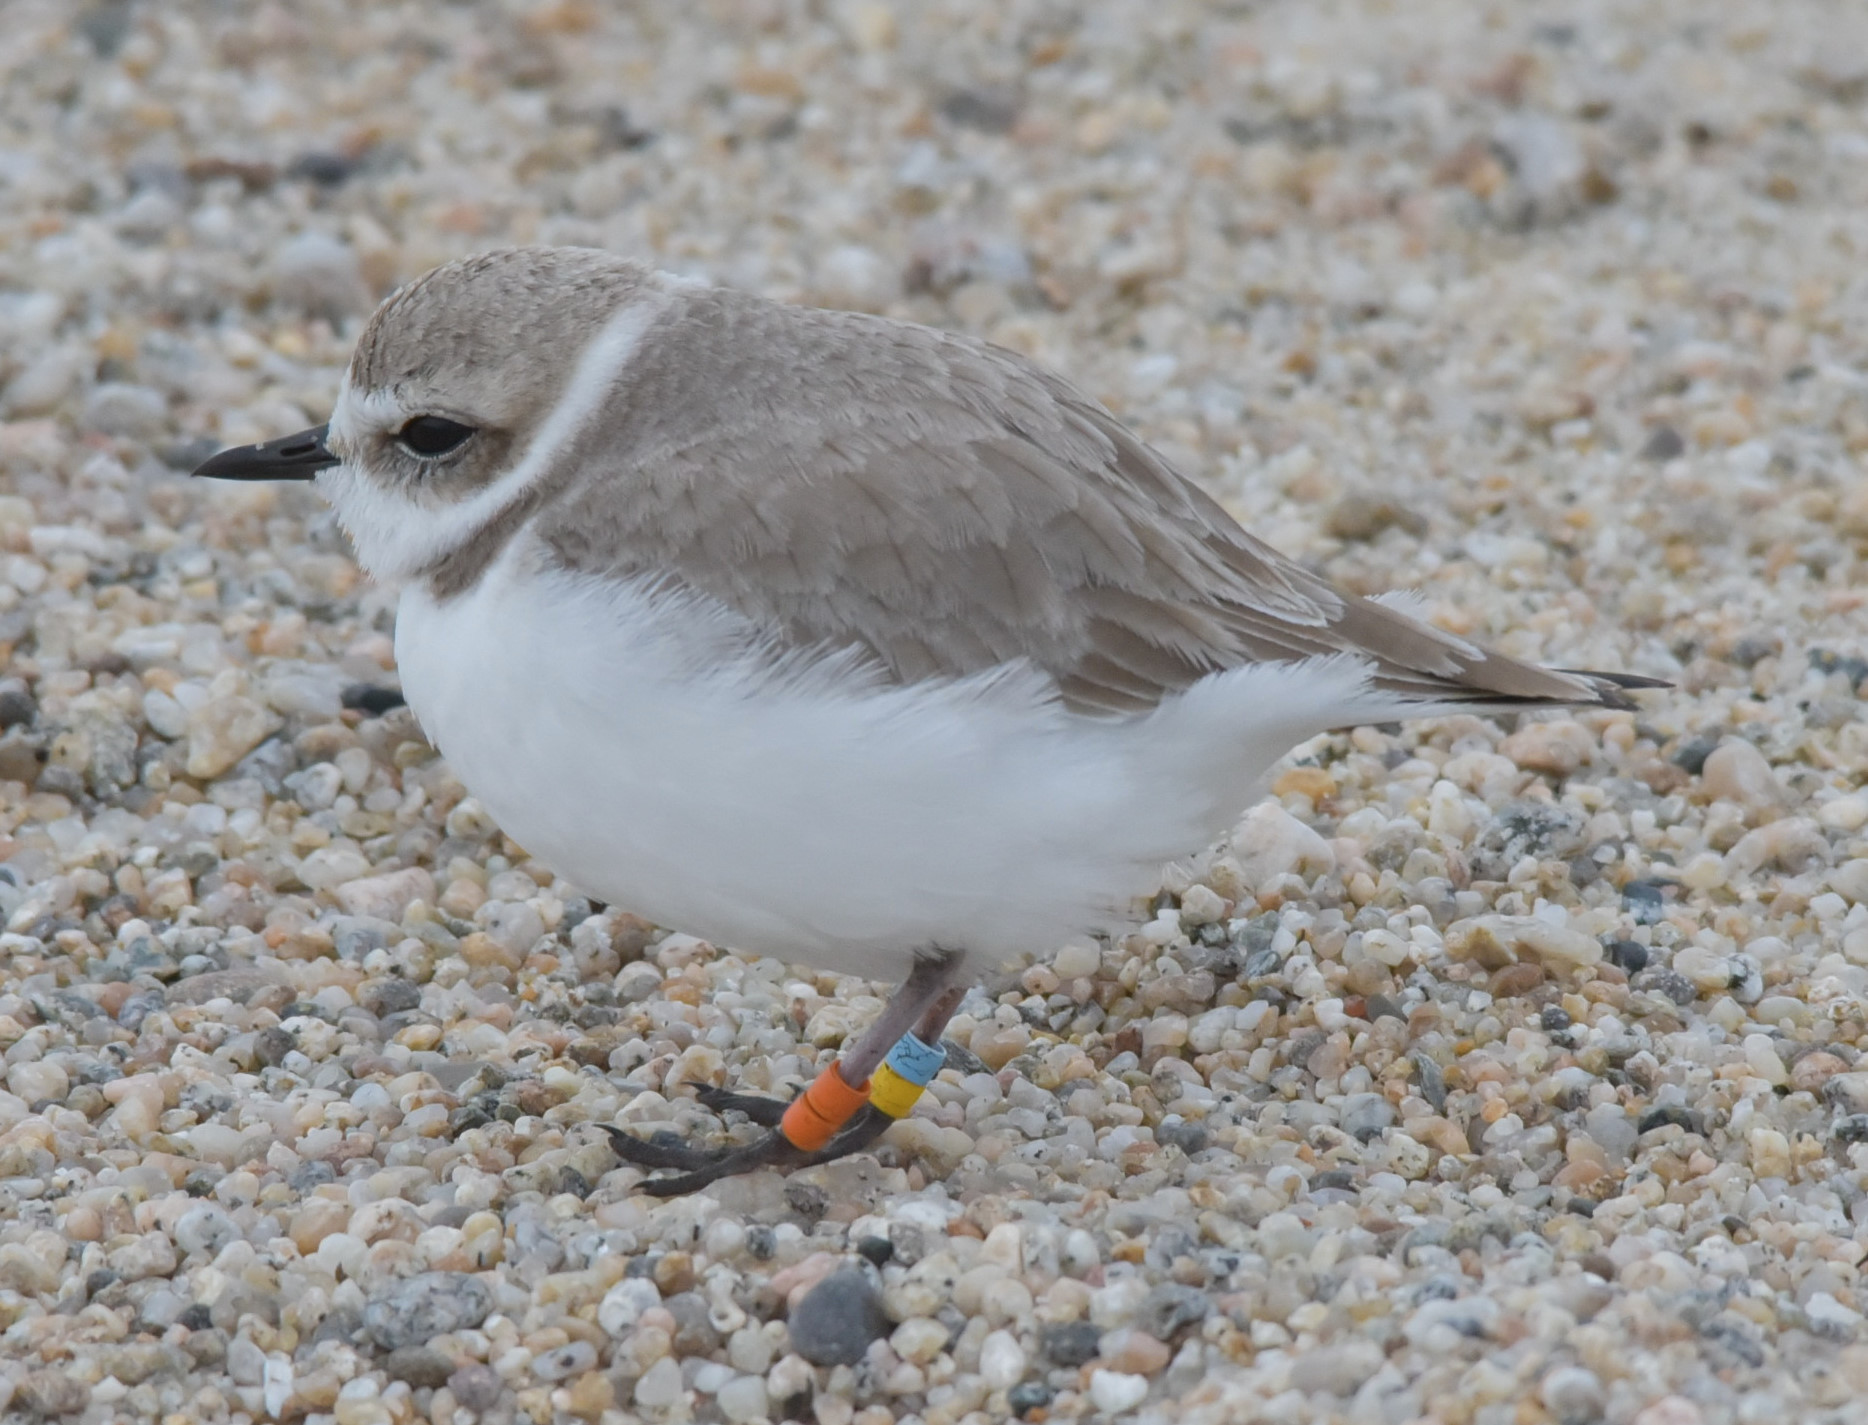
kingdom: Animalia
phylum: Chordata
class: Aves
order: Charadriiformes
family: Charadriidae
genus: Anarhynchus
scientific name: Anarhynchus
